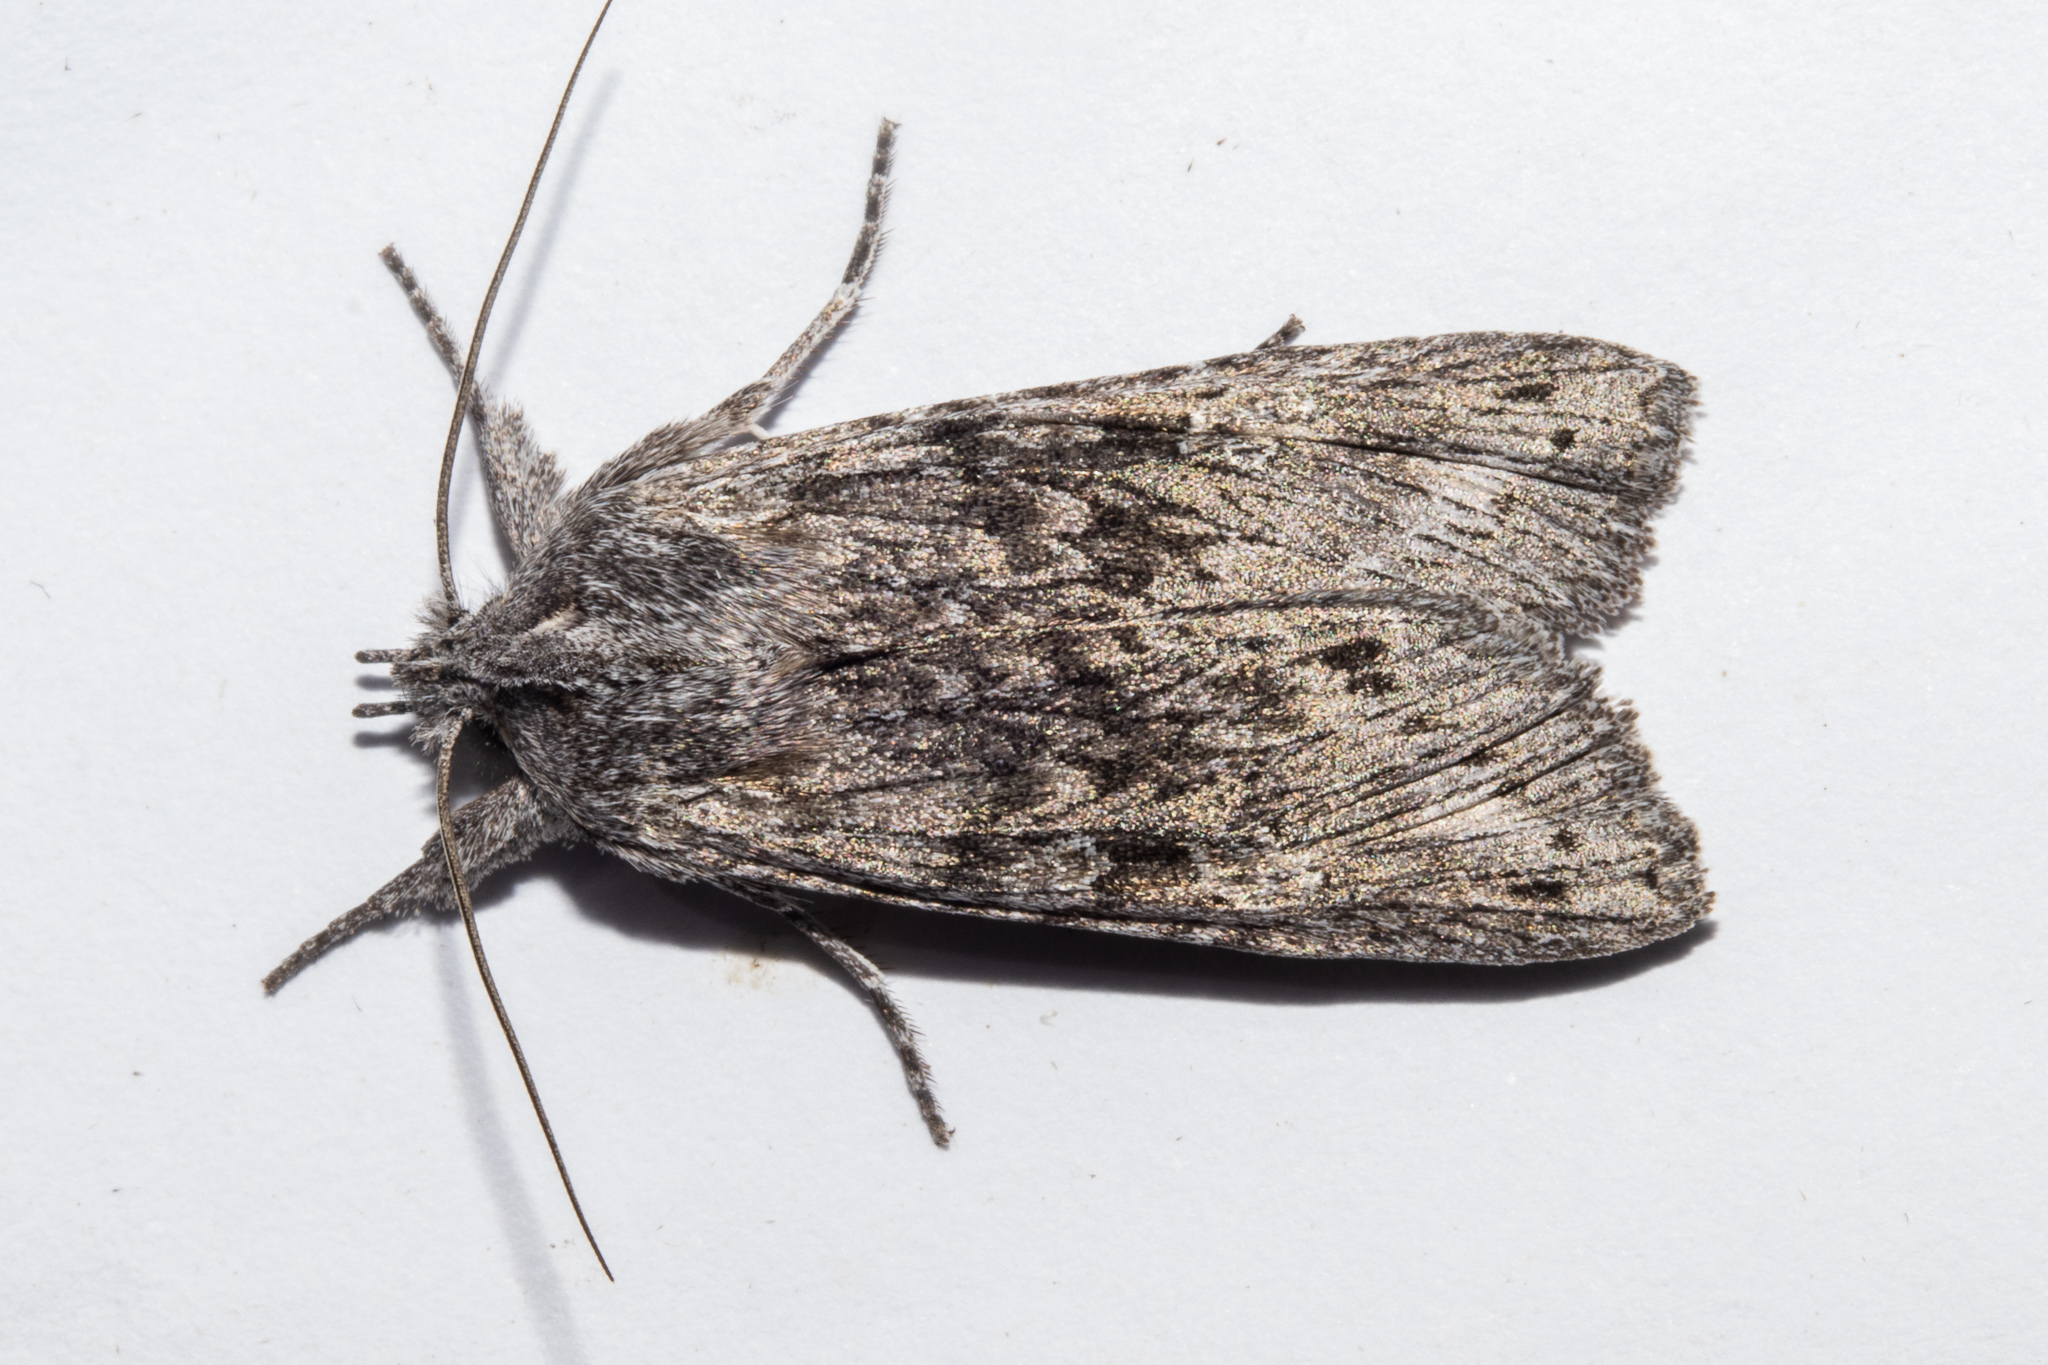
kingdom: Animalia
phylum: Arthropoda
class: Insecta
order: Lepidoptera
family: Noctuidae
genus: Physetica
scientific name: Physetica phricias
